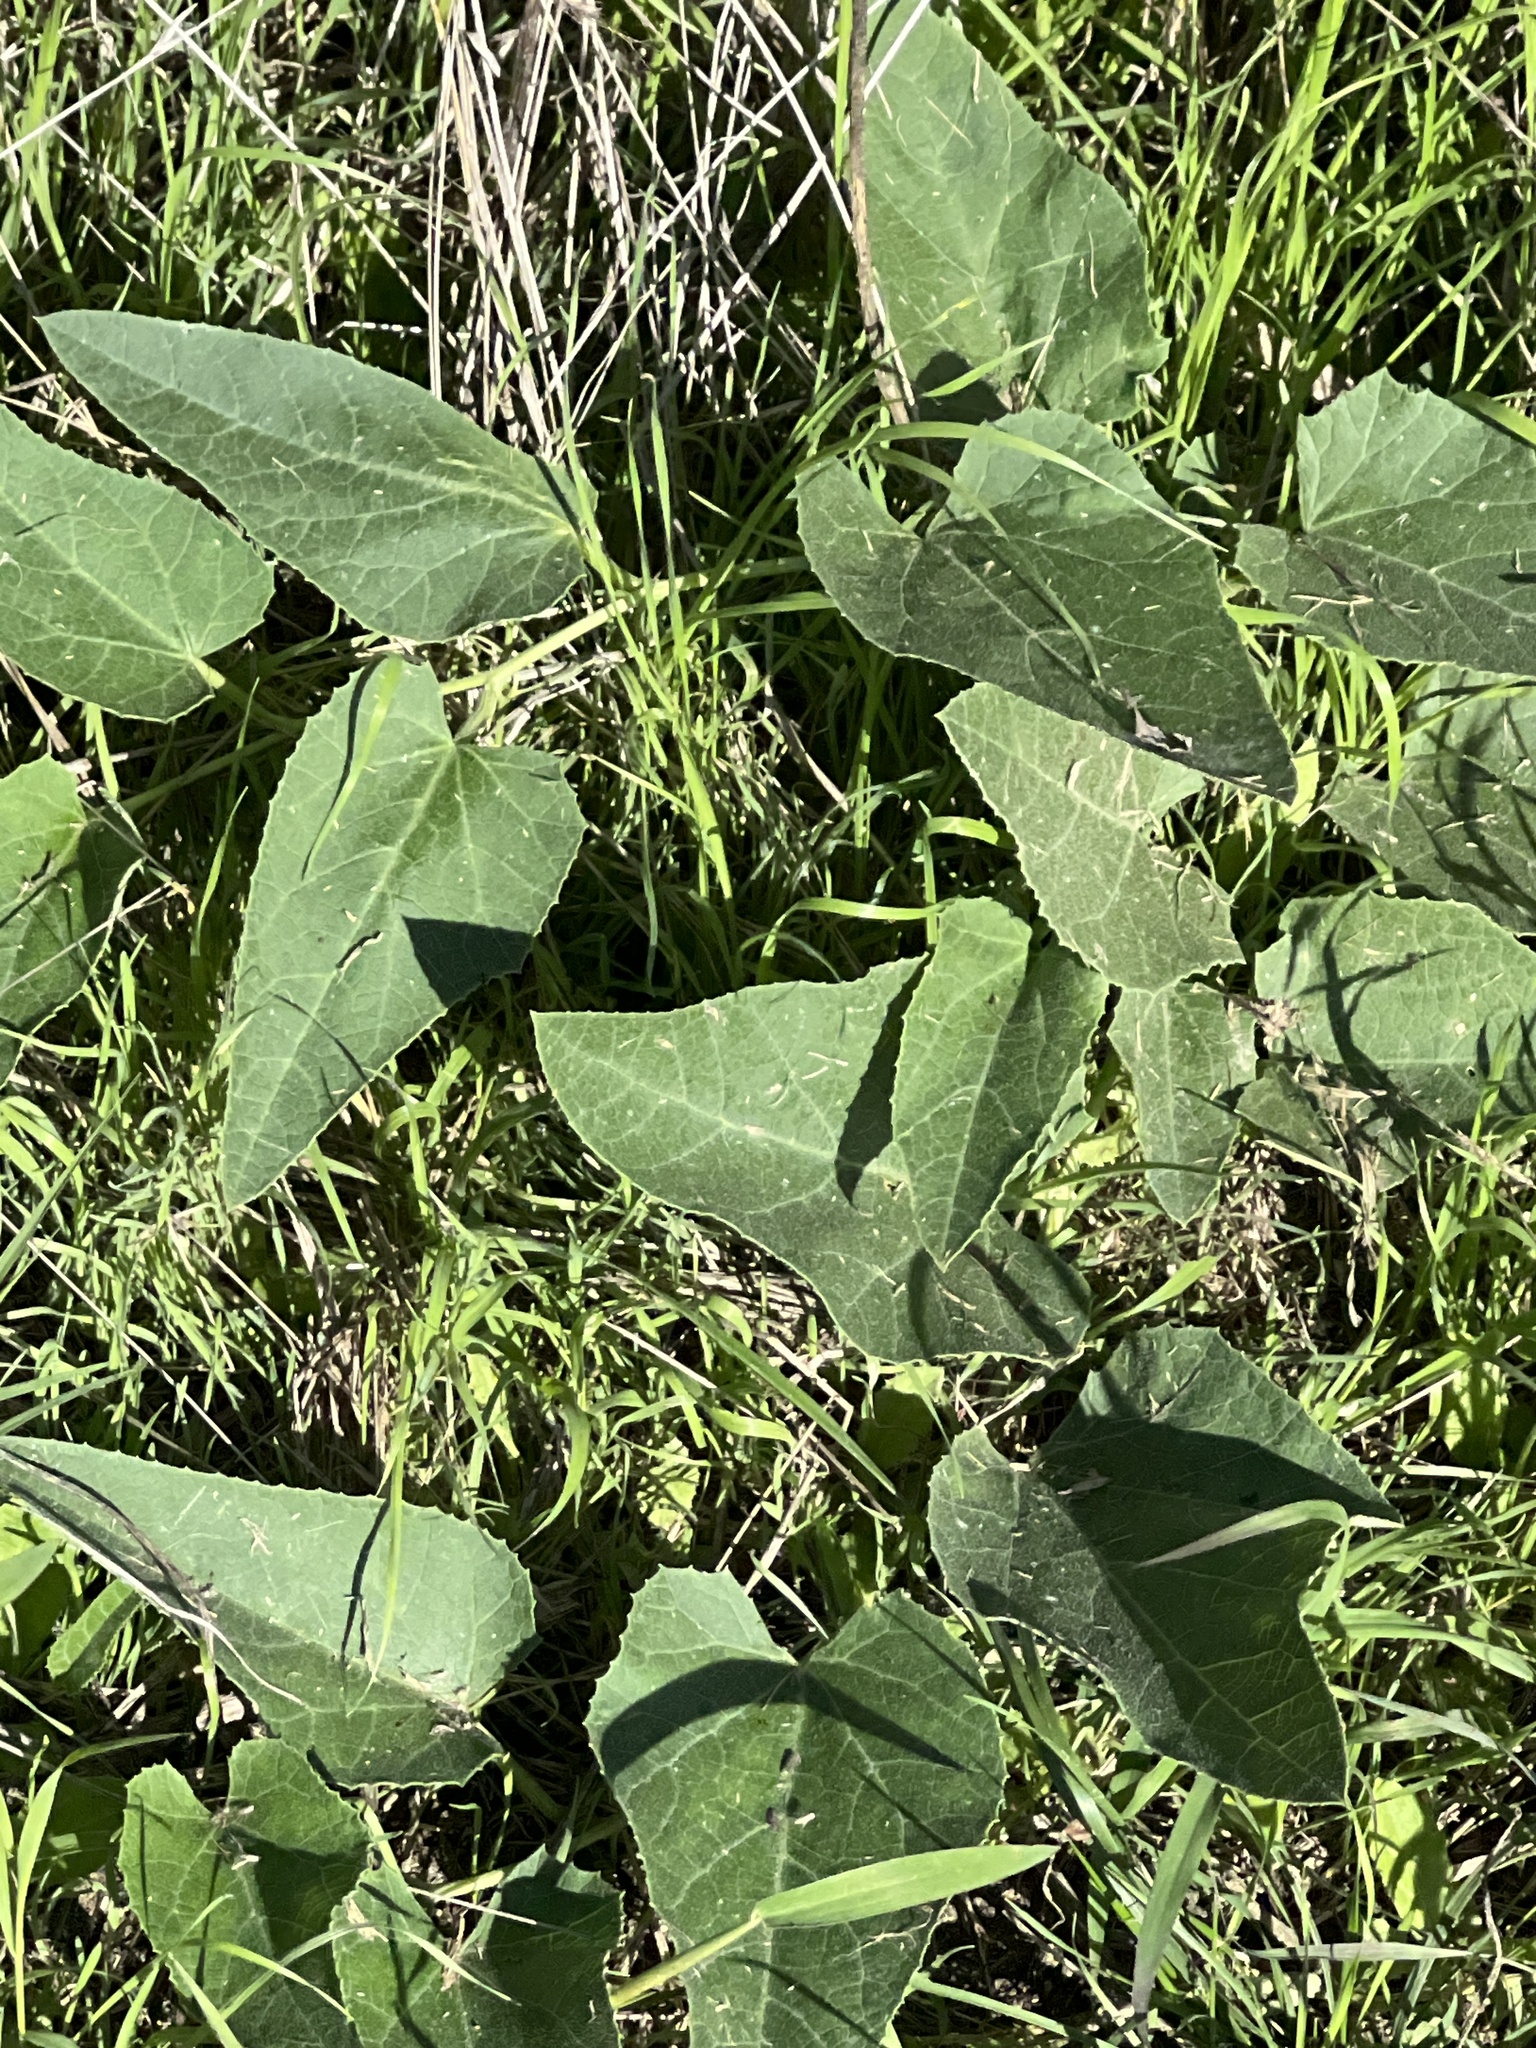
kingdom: Plantae
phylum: Tracheophyta
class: Magnoliopsida
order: Cucurbitales
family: Cucurbitaceae
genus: Cucurbita
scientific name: Cucurbita foetidissima
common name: Buffalo gourd
